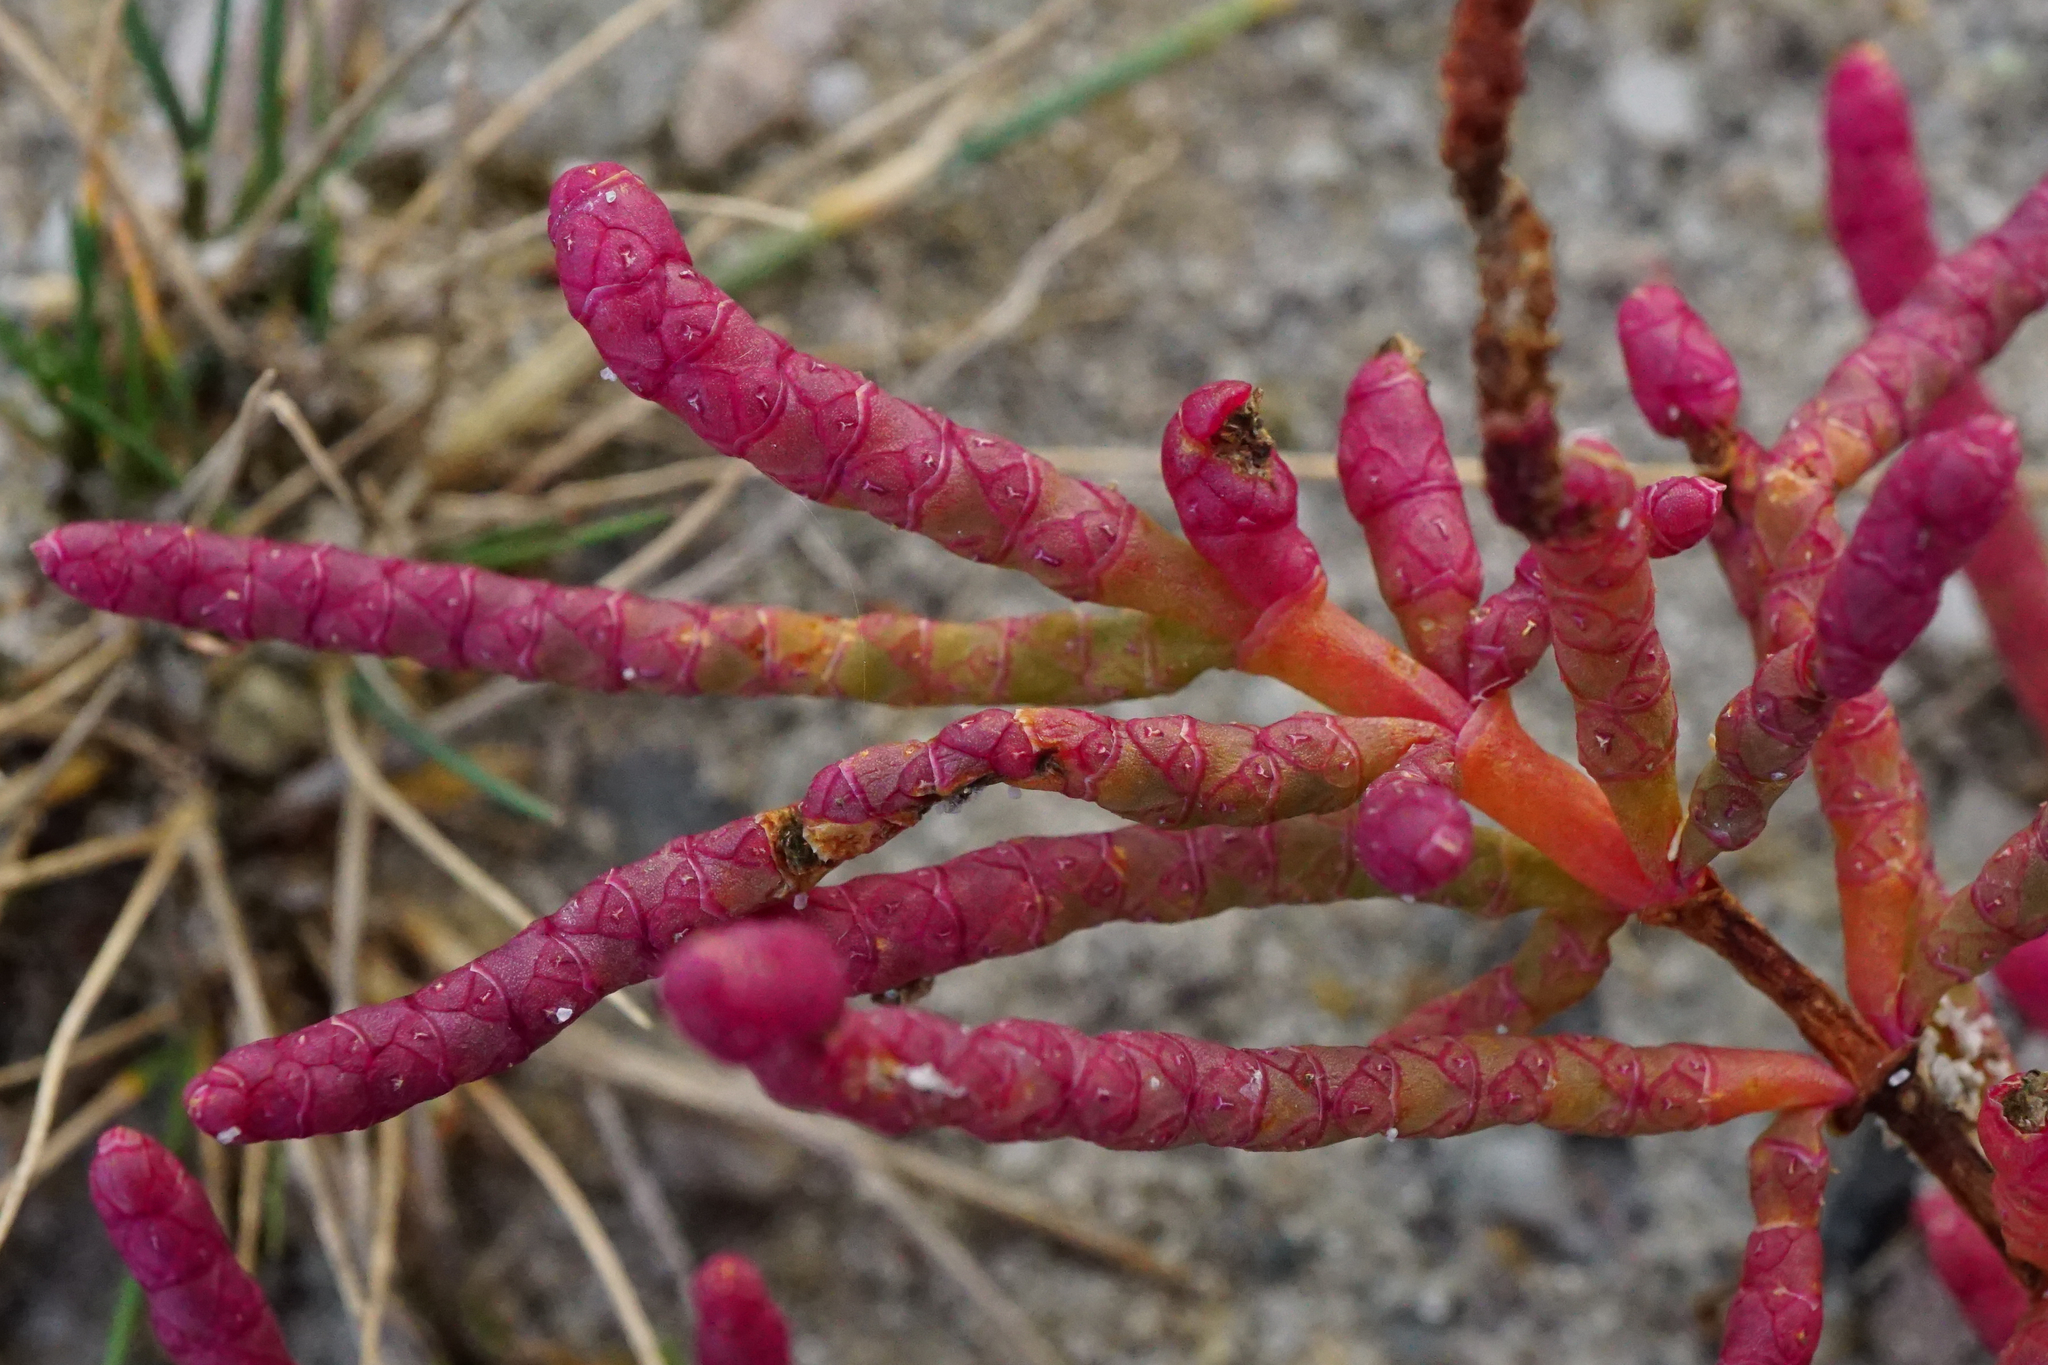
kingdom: Plantae
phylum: Tracheophyta
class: Magnoliopsida
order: Caryophyllales
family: Amaranthaceae
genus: Salicornia
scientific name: Salicornia perennans
